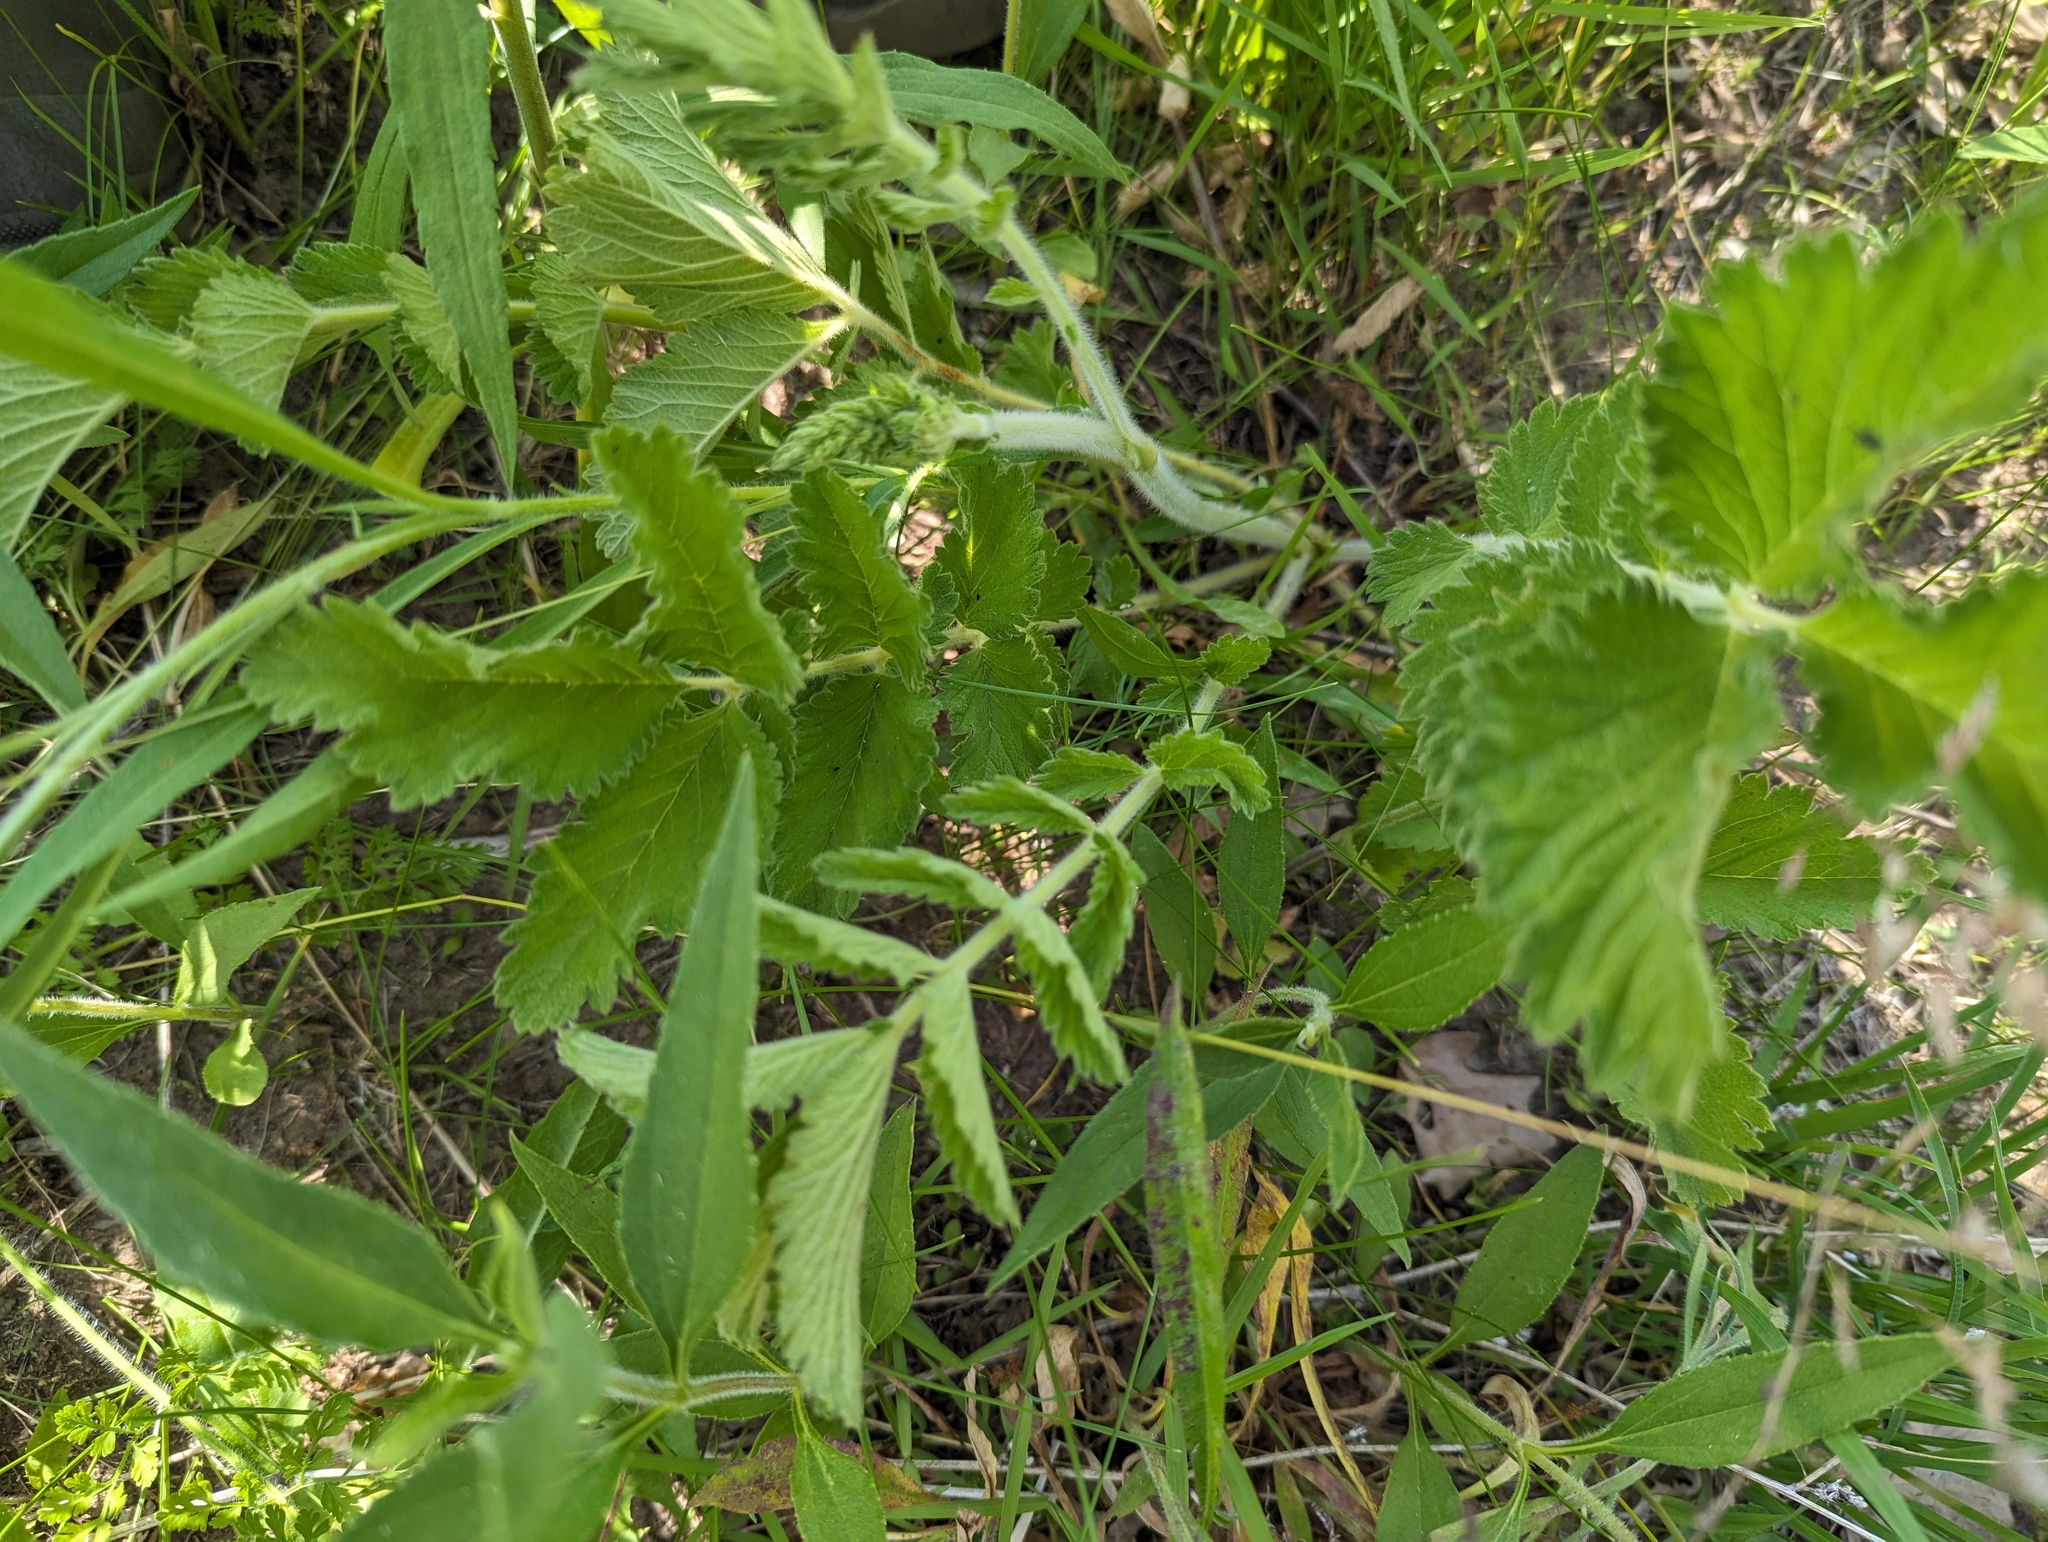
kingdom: Plantae
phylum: Tracheophyta
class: Magnoliopsida
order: Rosales
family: Rosaceae
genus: Drymocallis
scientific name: Drymocallis arguta
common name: Tall cinquefoil
